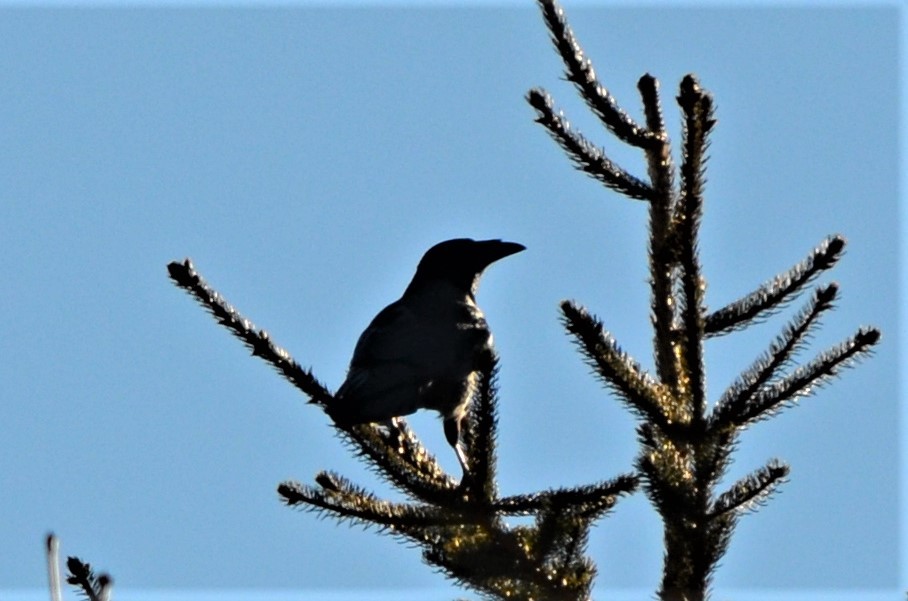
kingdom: Animalia
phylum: Chordata
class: Aves
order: Passeriformes
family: Corvidae
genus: Corvus
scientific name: Corvus corone
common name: Carrion crow
